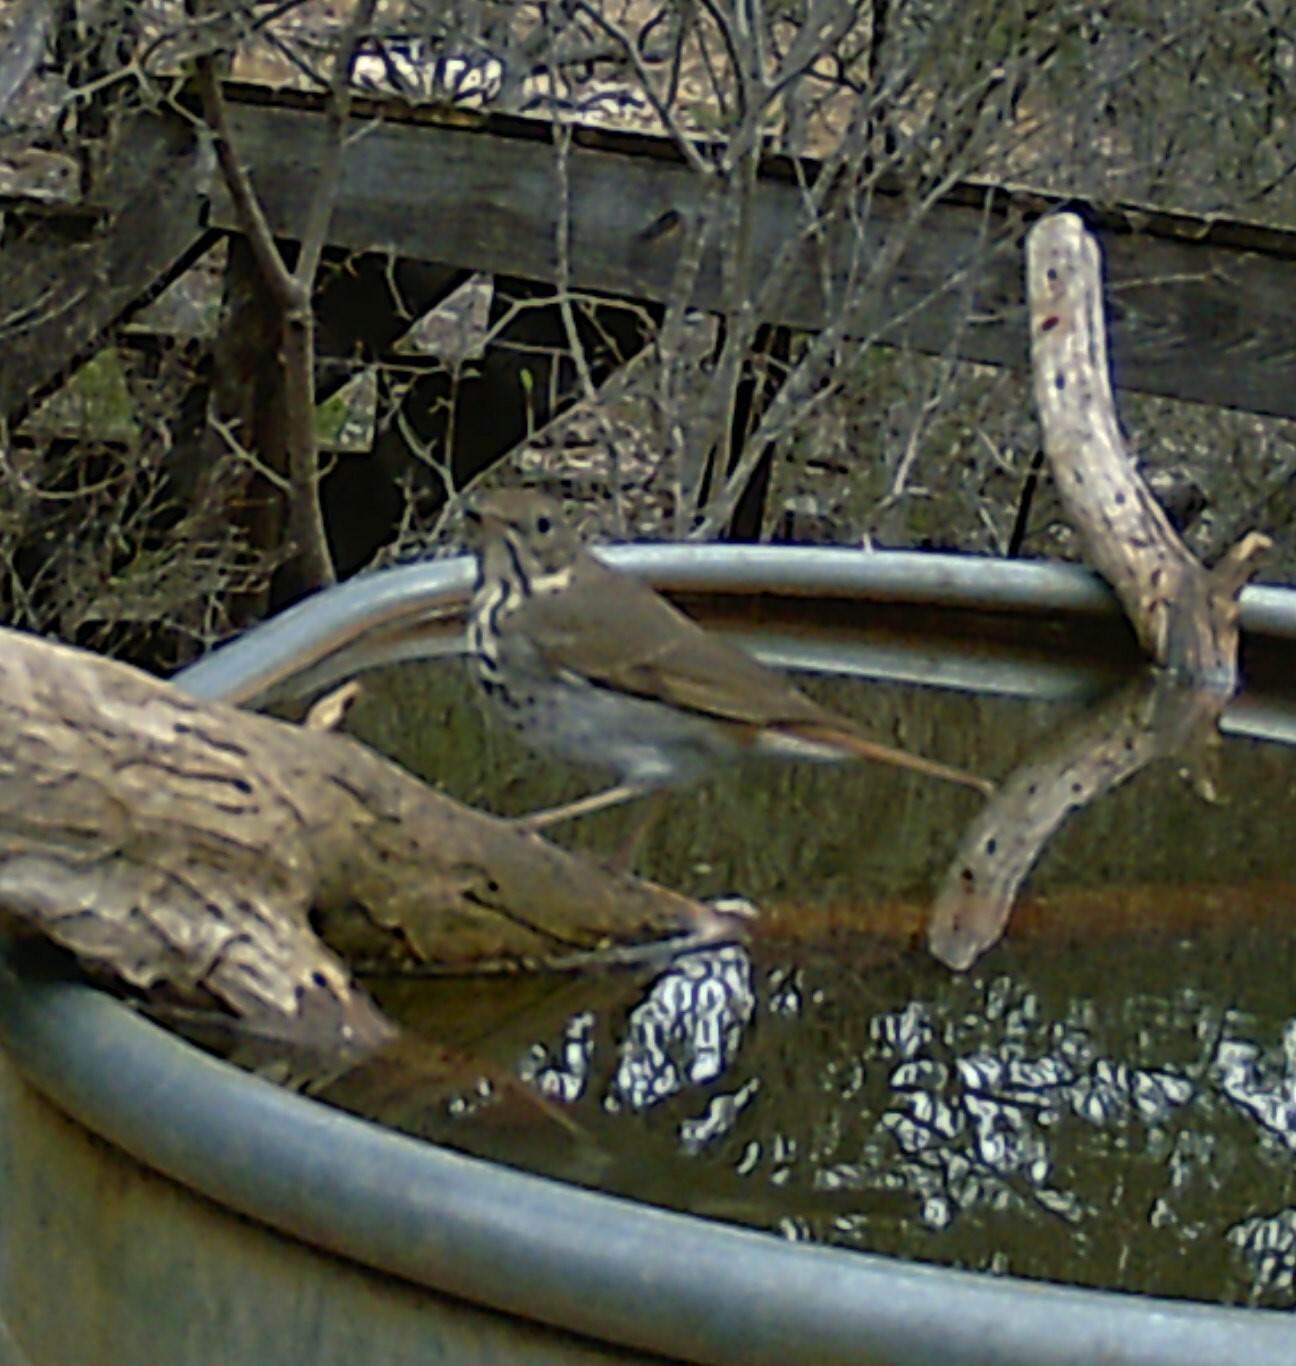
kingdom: Animalia
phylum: Chordata
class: Aves
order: Passeriformes
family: Turdidae
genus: Catharus
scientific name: Catharus guttatus
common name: Hermit thrush
